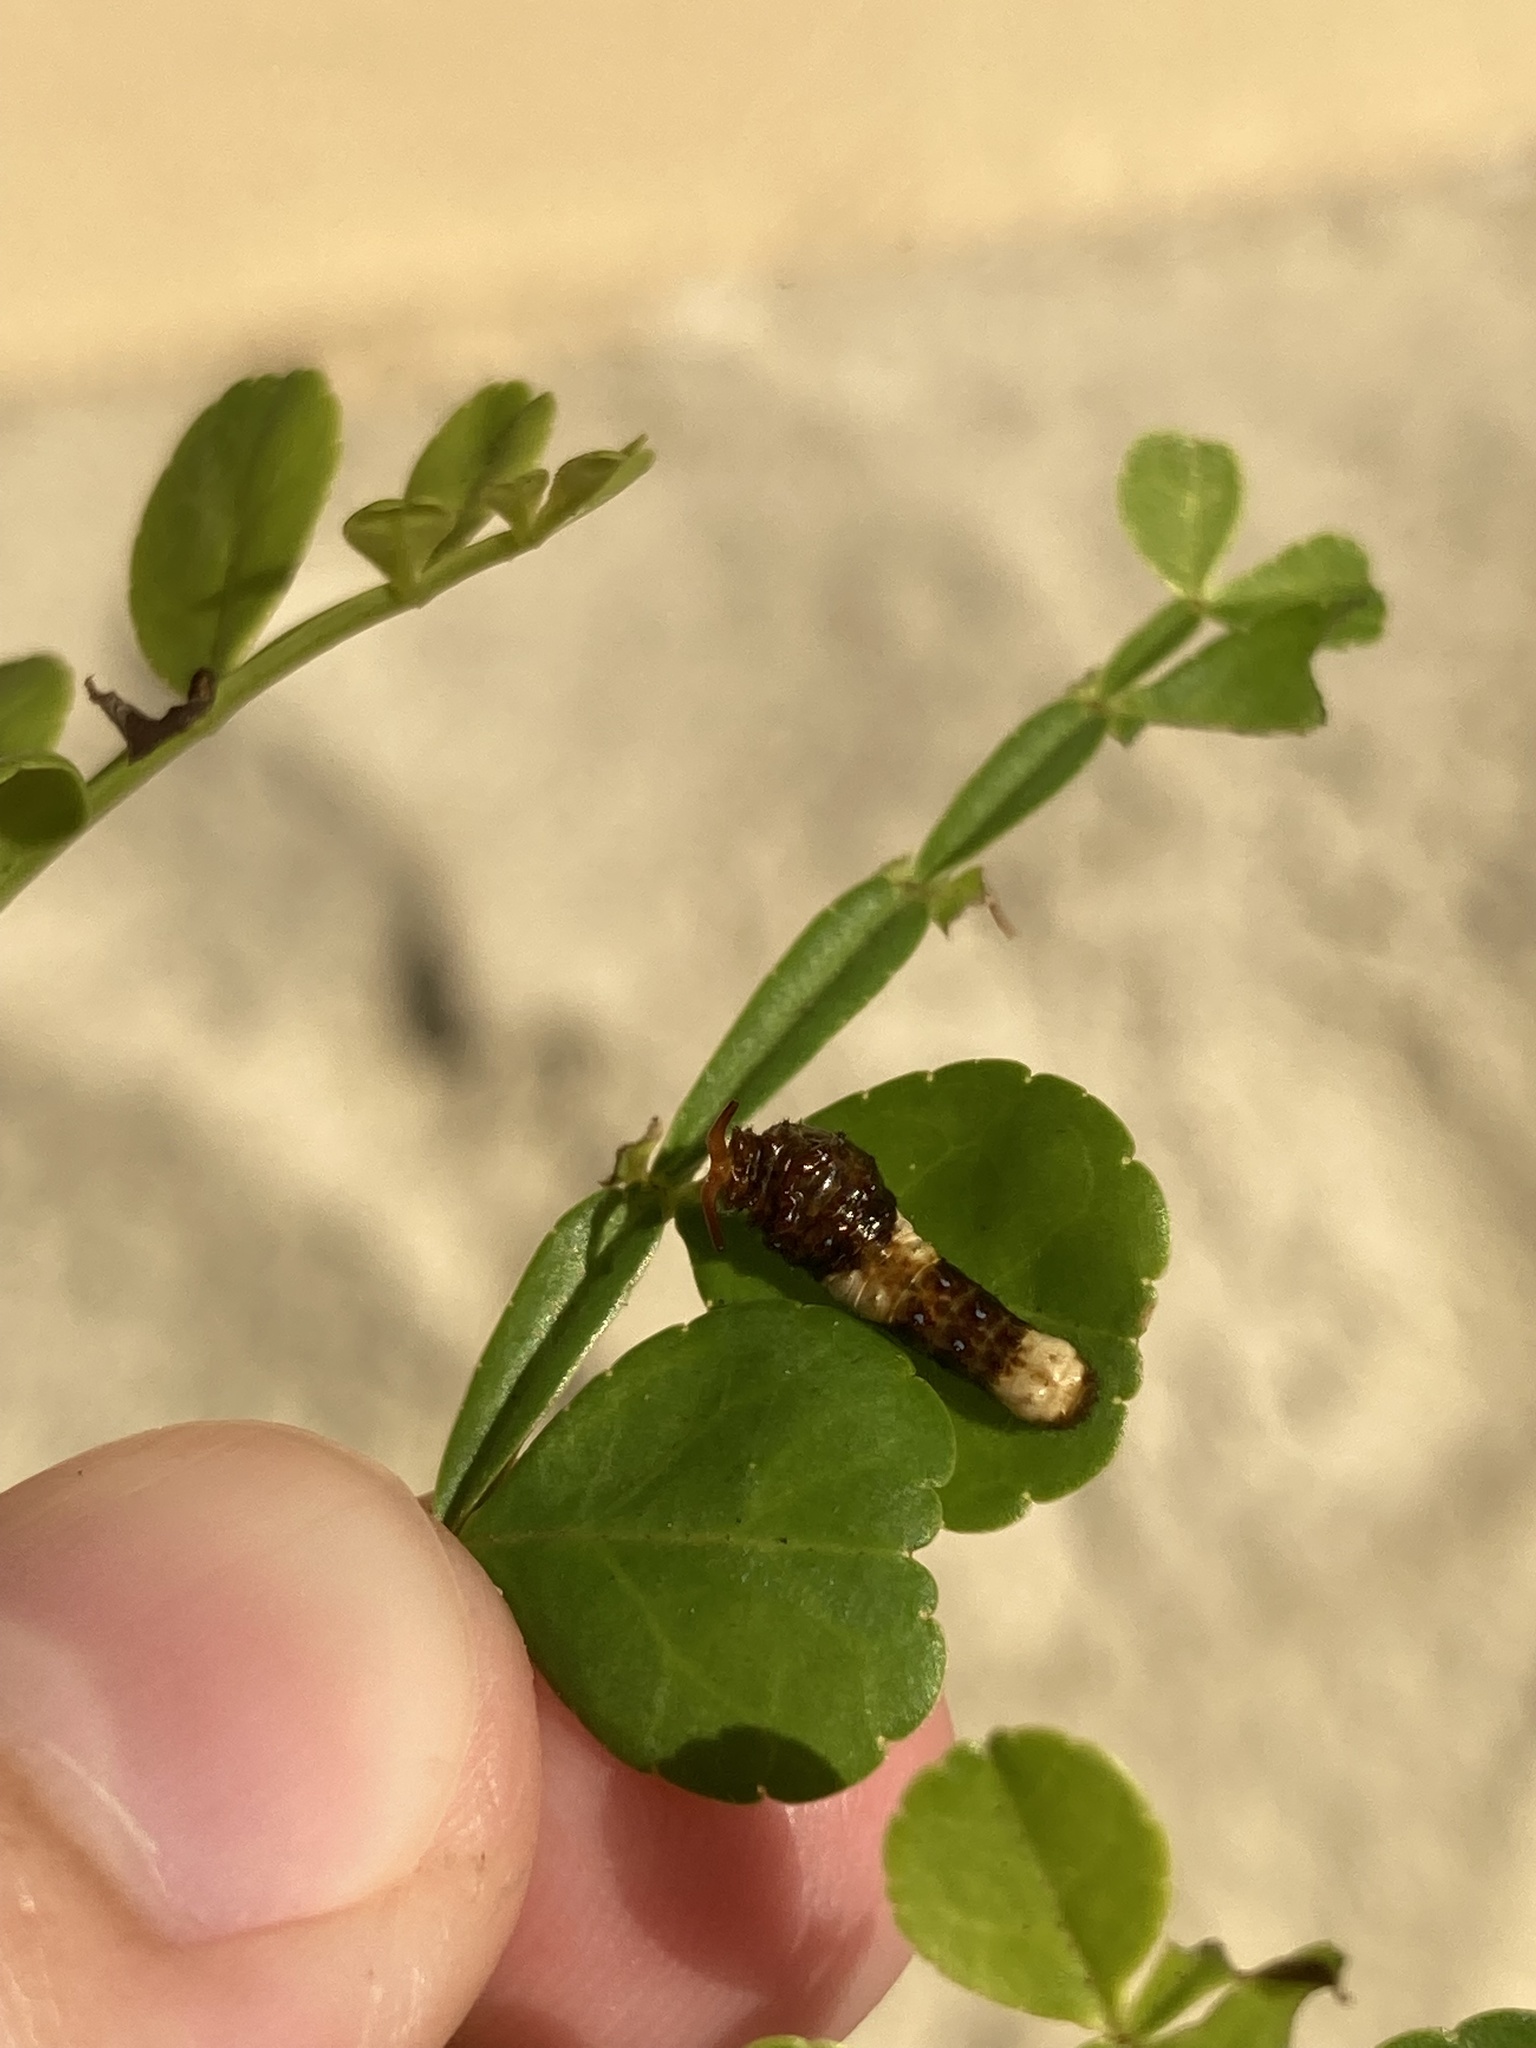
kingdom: Animalia
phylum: Arthropoda
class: Insecta
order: Lepidoptera
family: Papilionidae
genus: Papilio
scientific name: Papilio cresphontes
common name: Giant swallowtail
